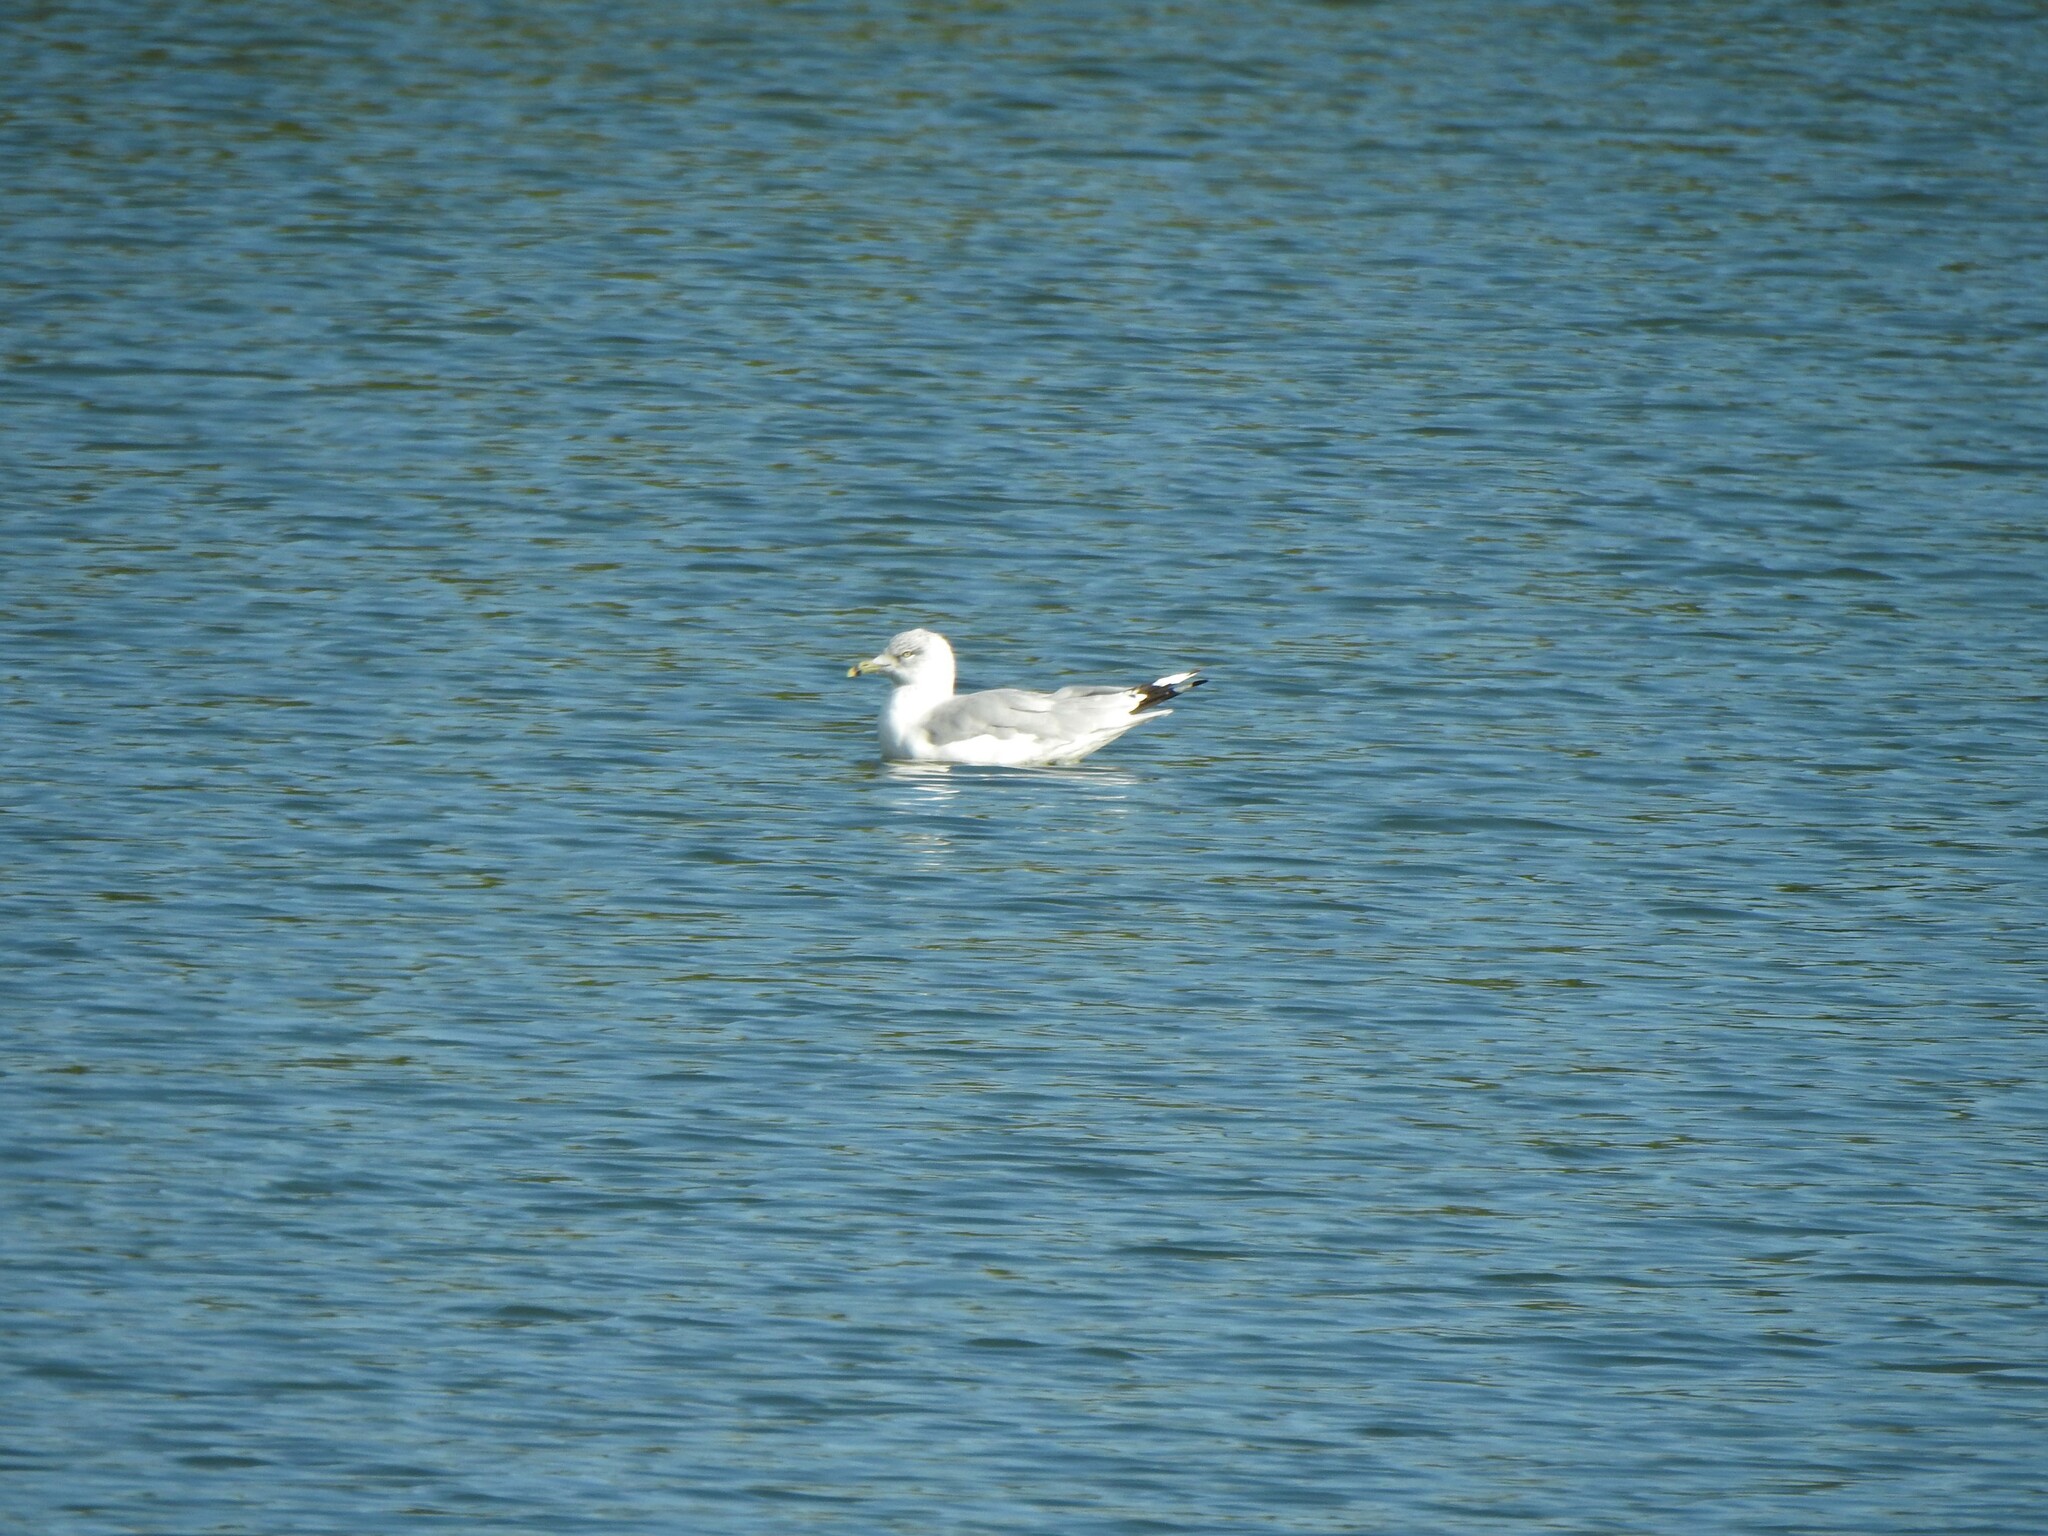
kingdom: Animalia
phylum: Chordata
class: Aves
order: Charadriiformes
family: Laridae
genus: Larus
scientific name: Larus delawarensis
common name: Ring-billed gull
